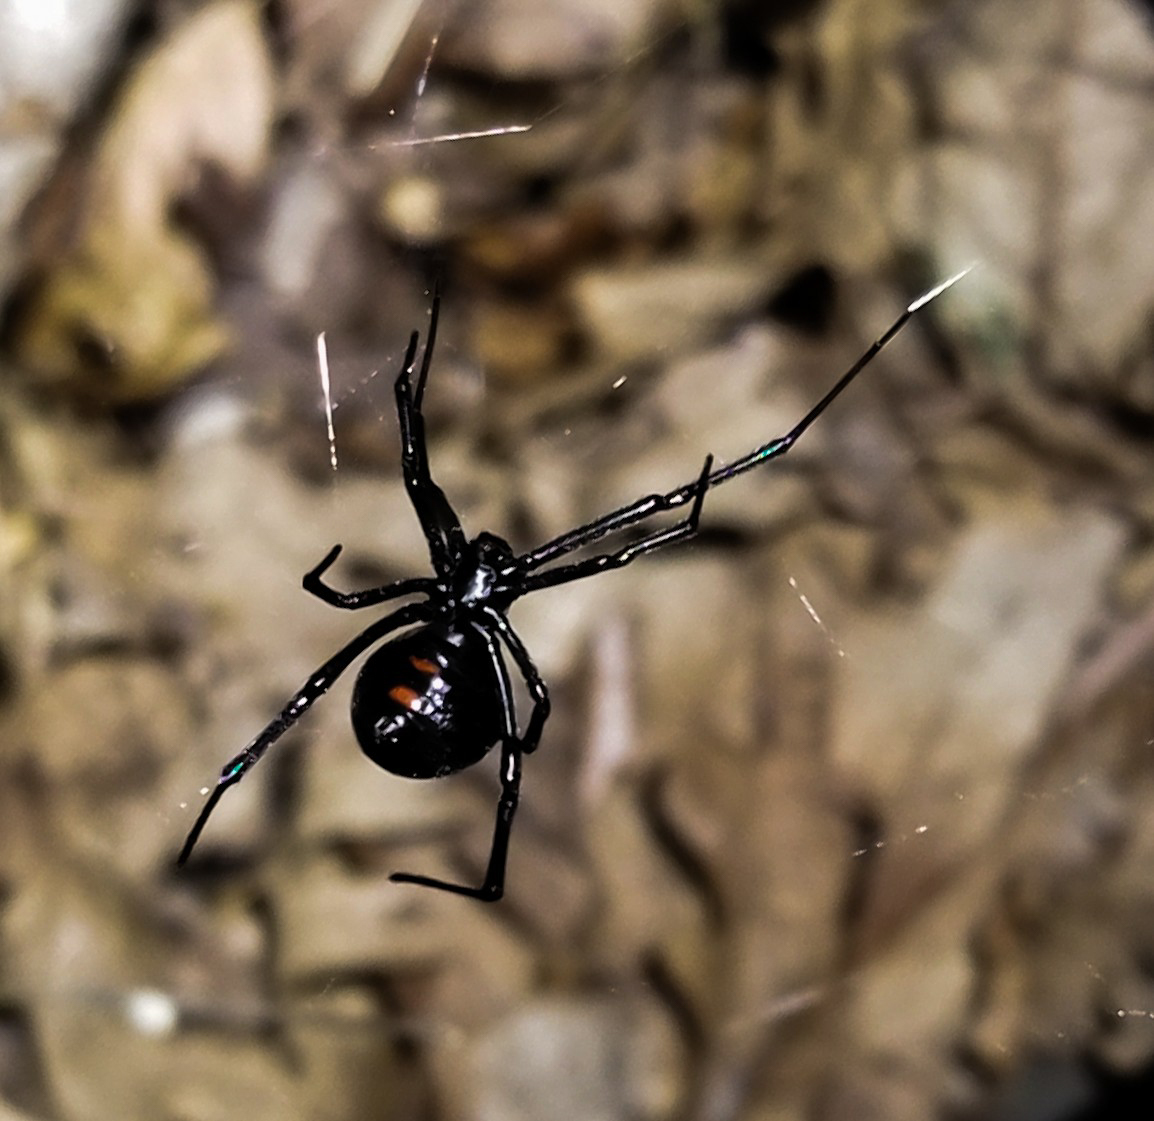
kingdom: Animalia
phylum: Arthropoda
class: Arachnida
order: Araneae
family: Theridiidae
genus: Latrodectus
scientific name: Latrodectus variolus
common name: Northern black widow
